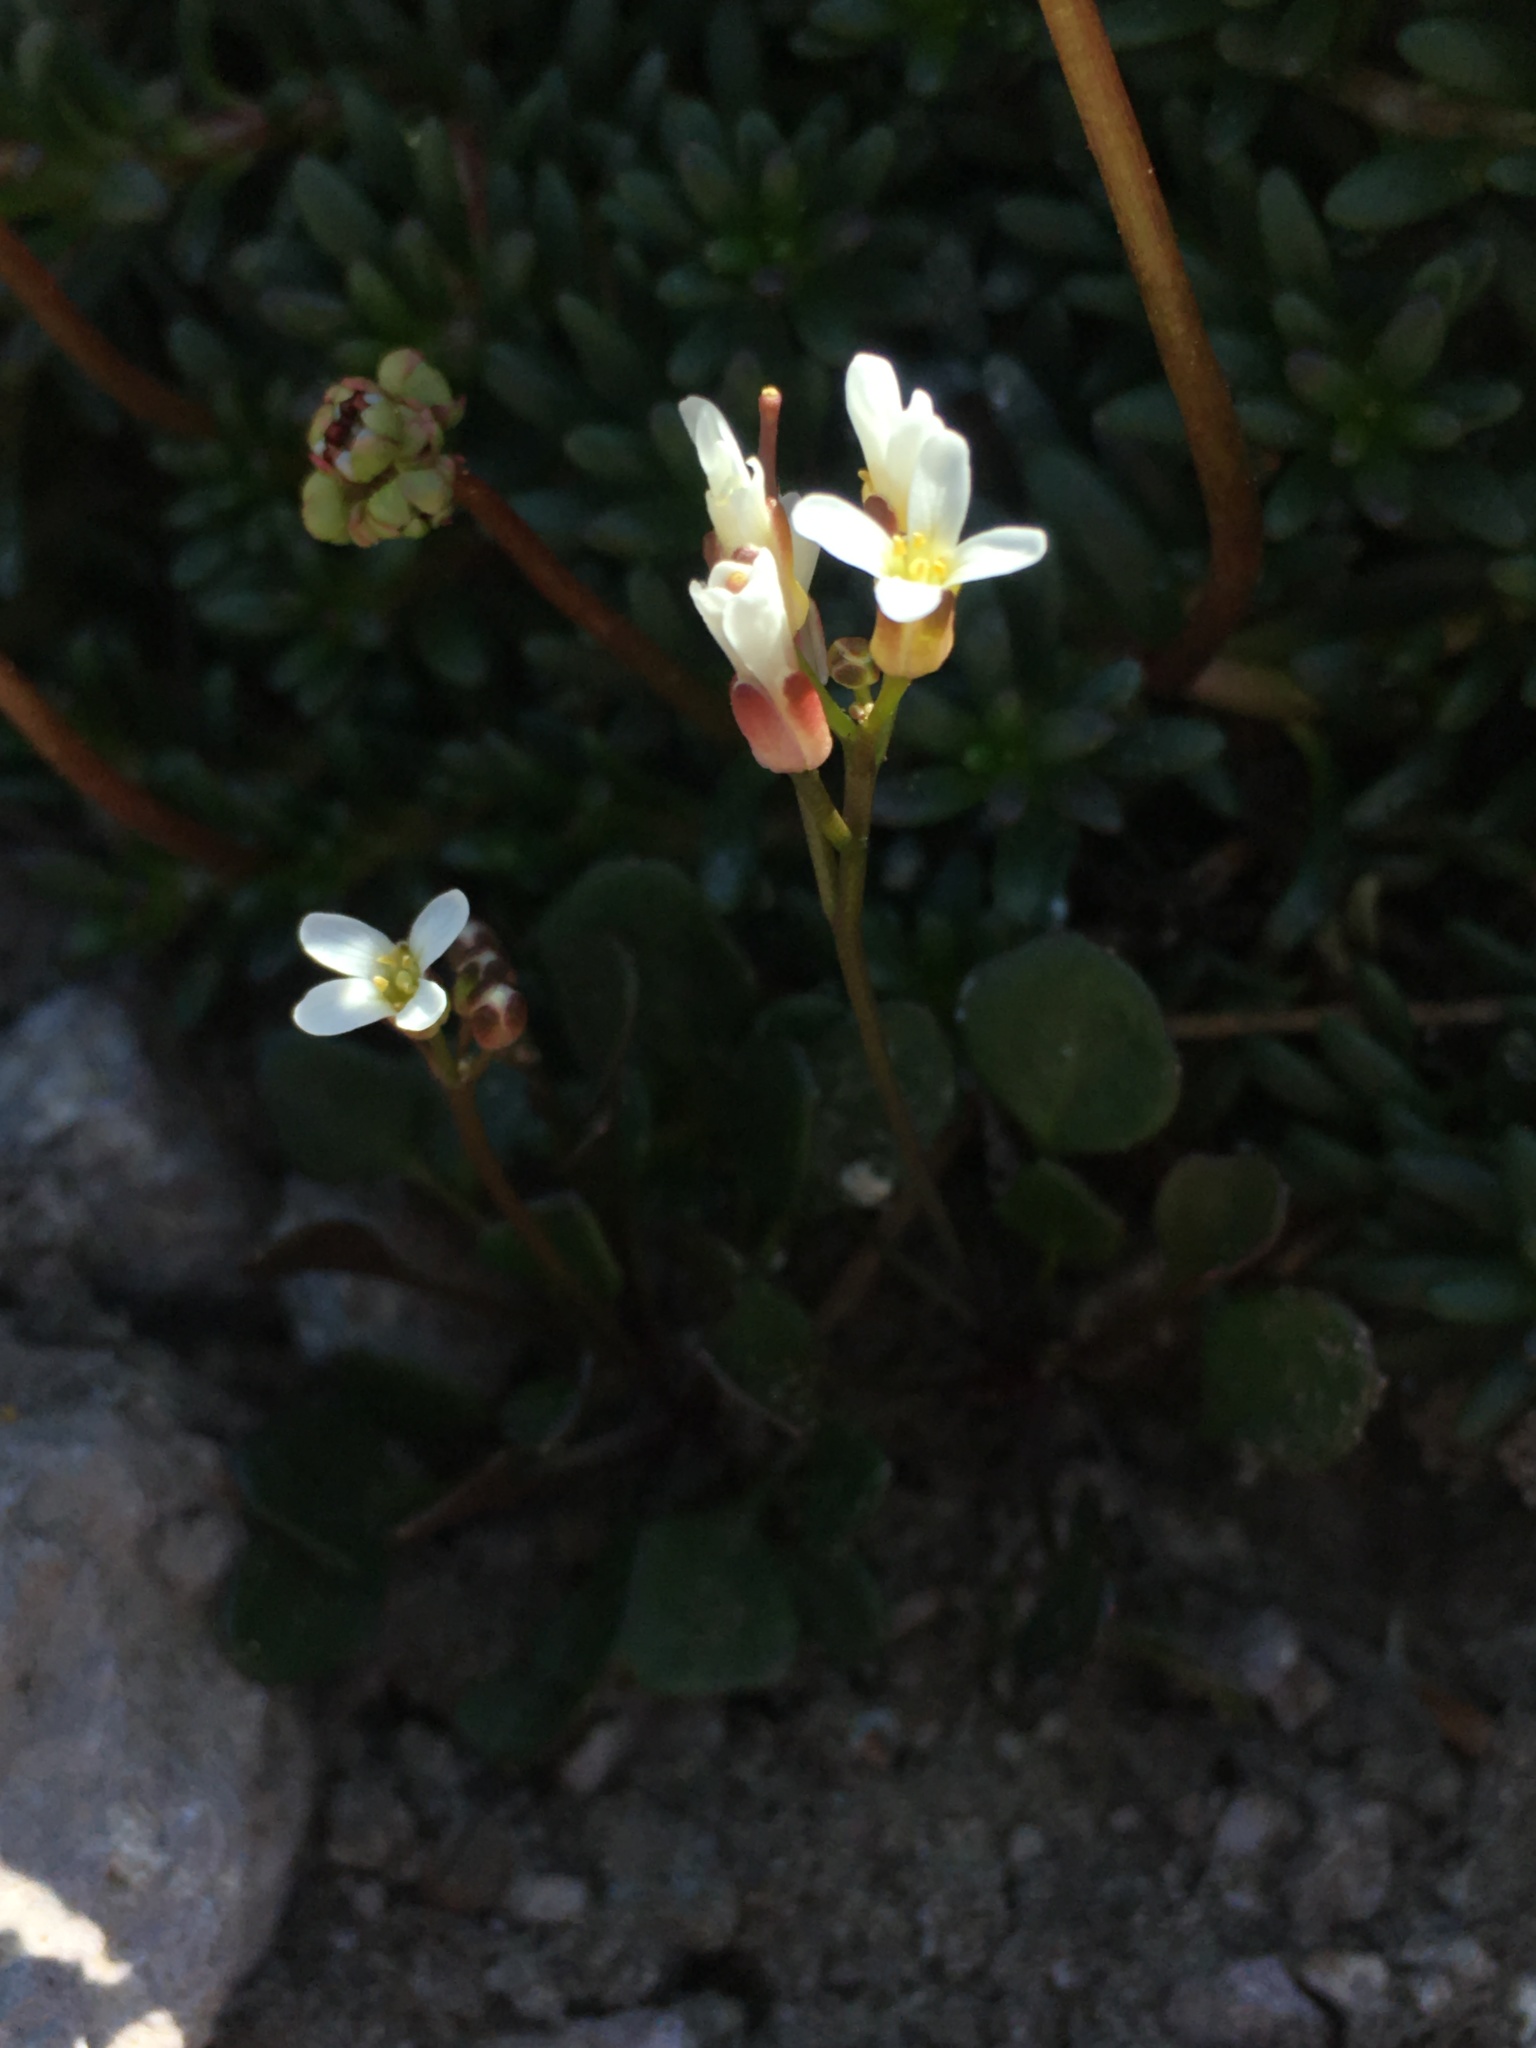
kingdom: Plantae
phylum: Tracheophyta
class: Magnoliopsida
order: Brassicales
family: Brassicaceae
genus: Cardamine
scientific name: Cardamine bellidifolia
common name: Alpine bittercress
